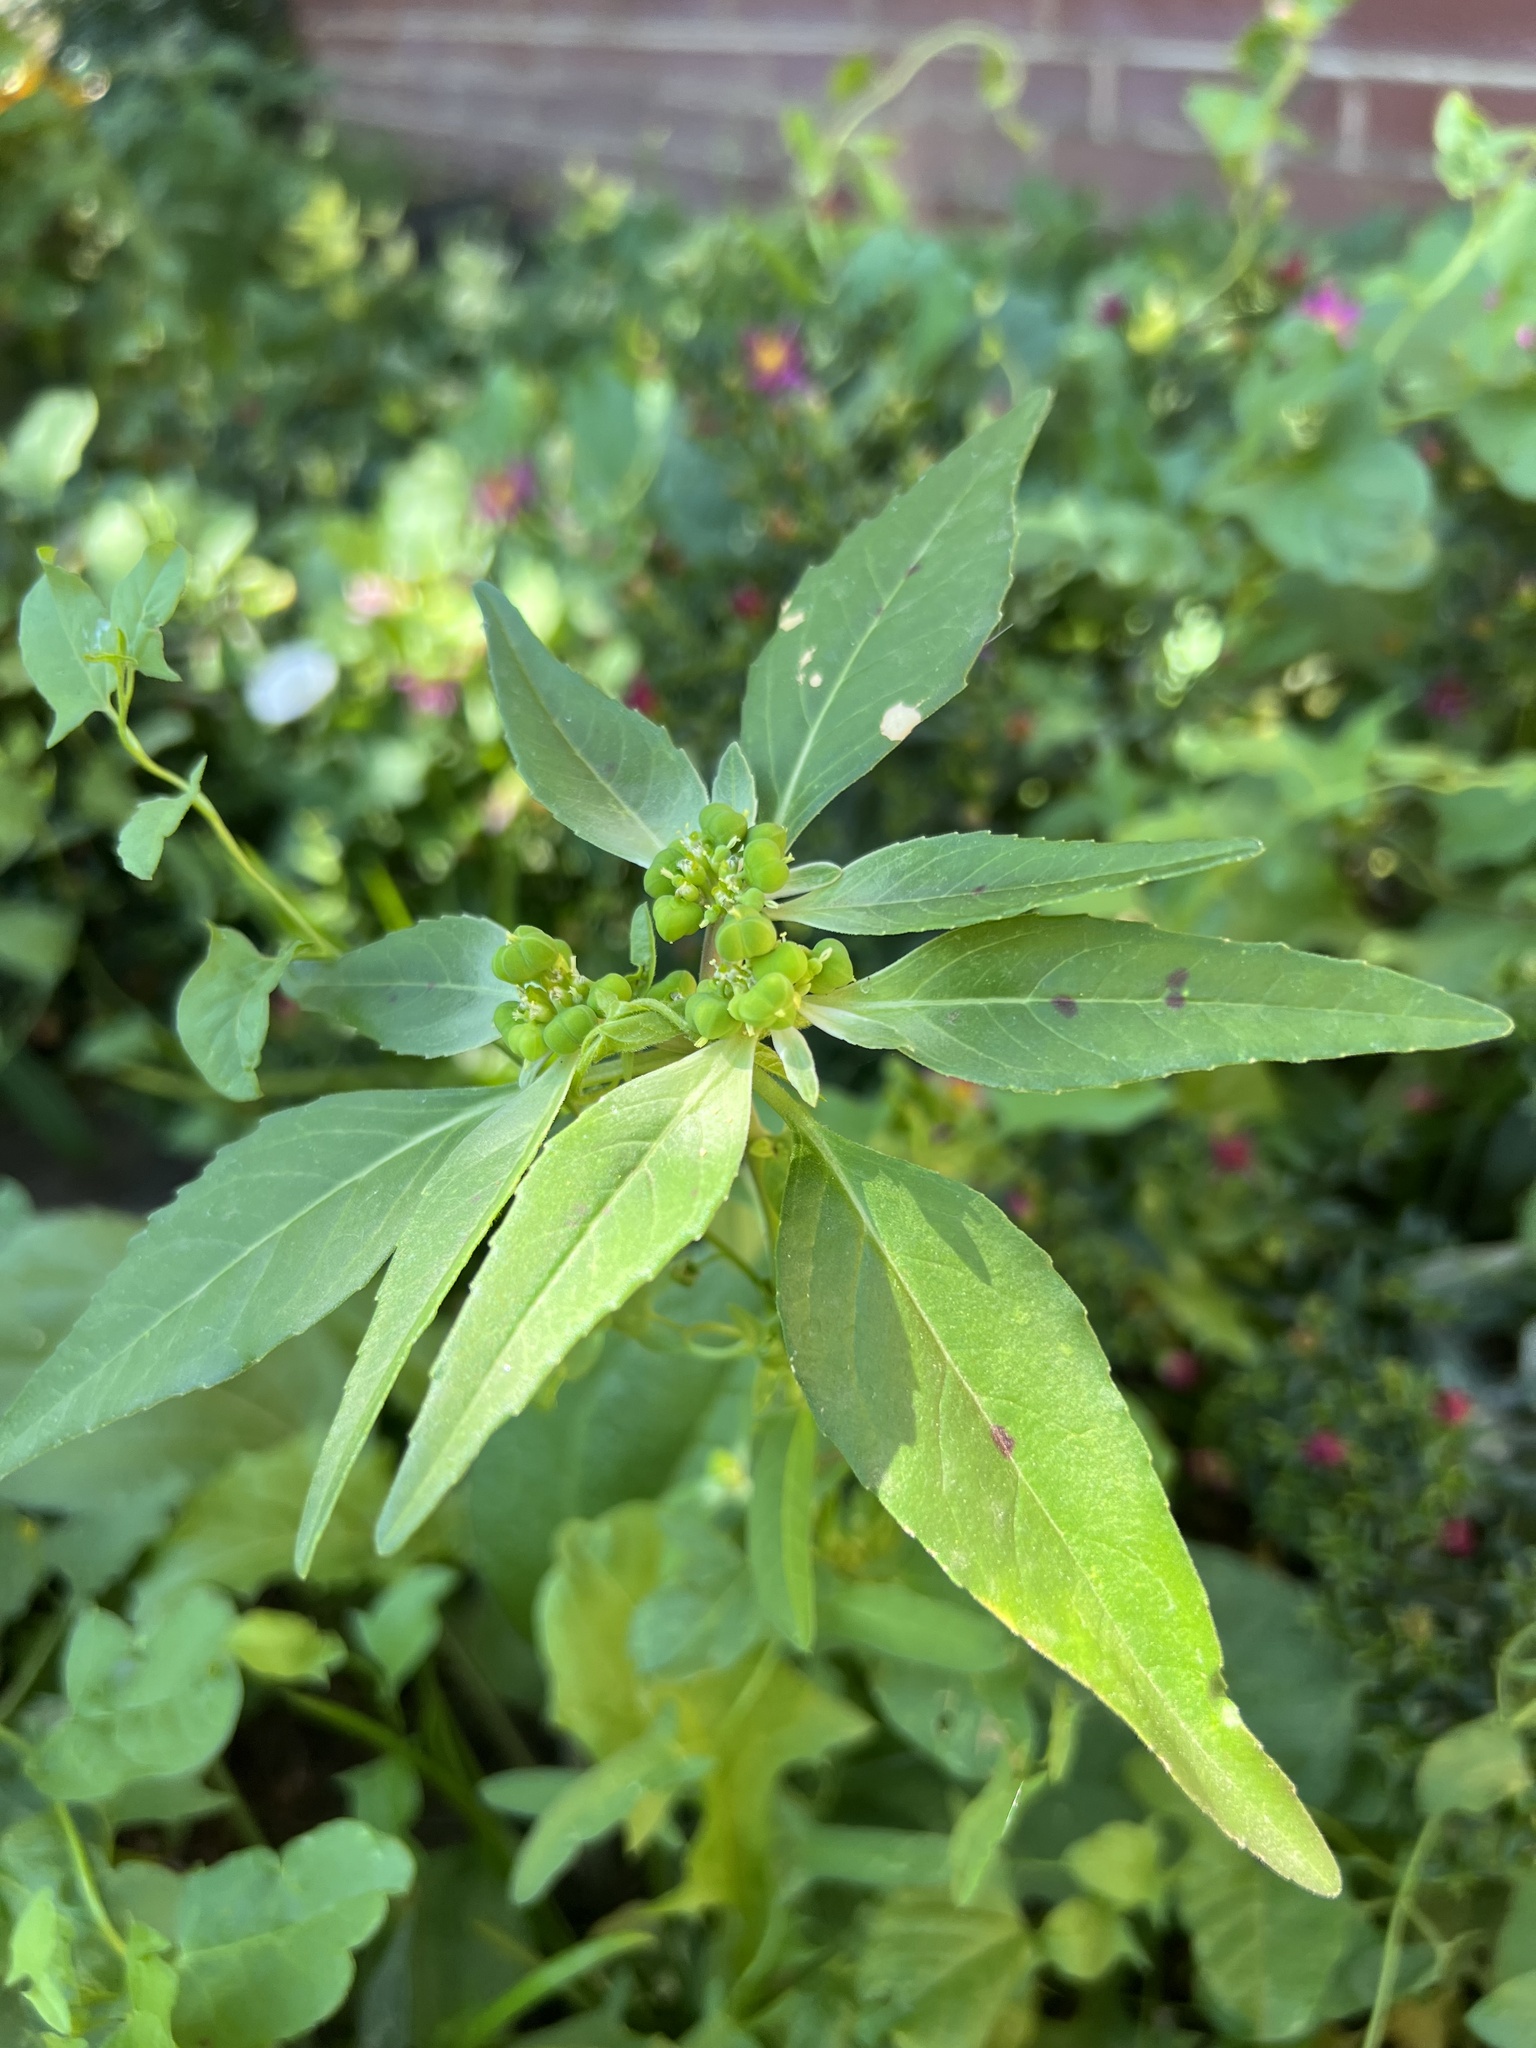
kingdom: Plantae
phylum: Tracheophyta
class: Magnoliopsida
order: Malpighiales
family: Euphorbiaceae
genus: Euphorbia
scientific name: Euphorbia dentata
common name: Dentate spurge
